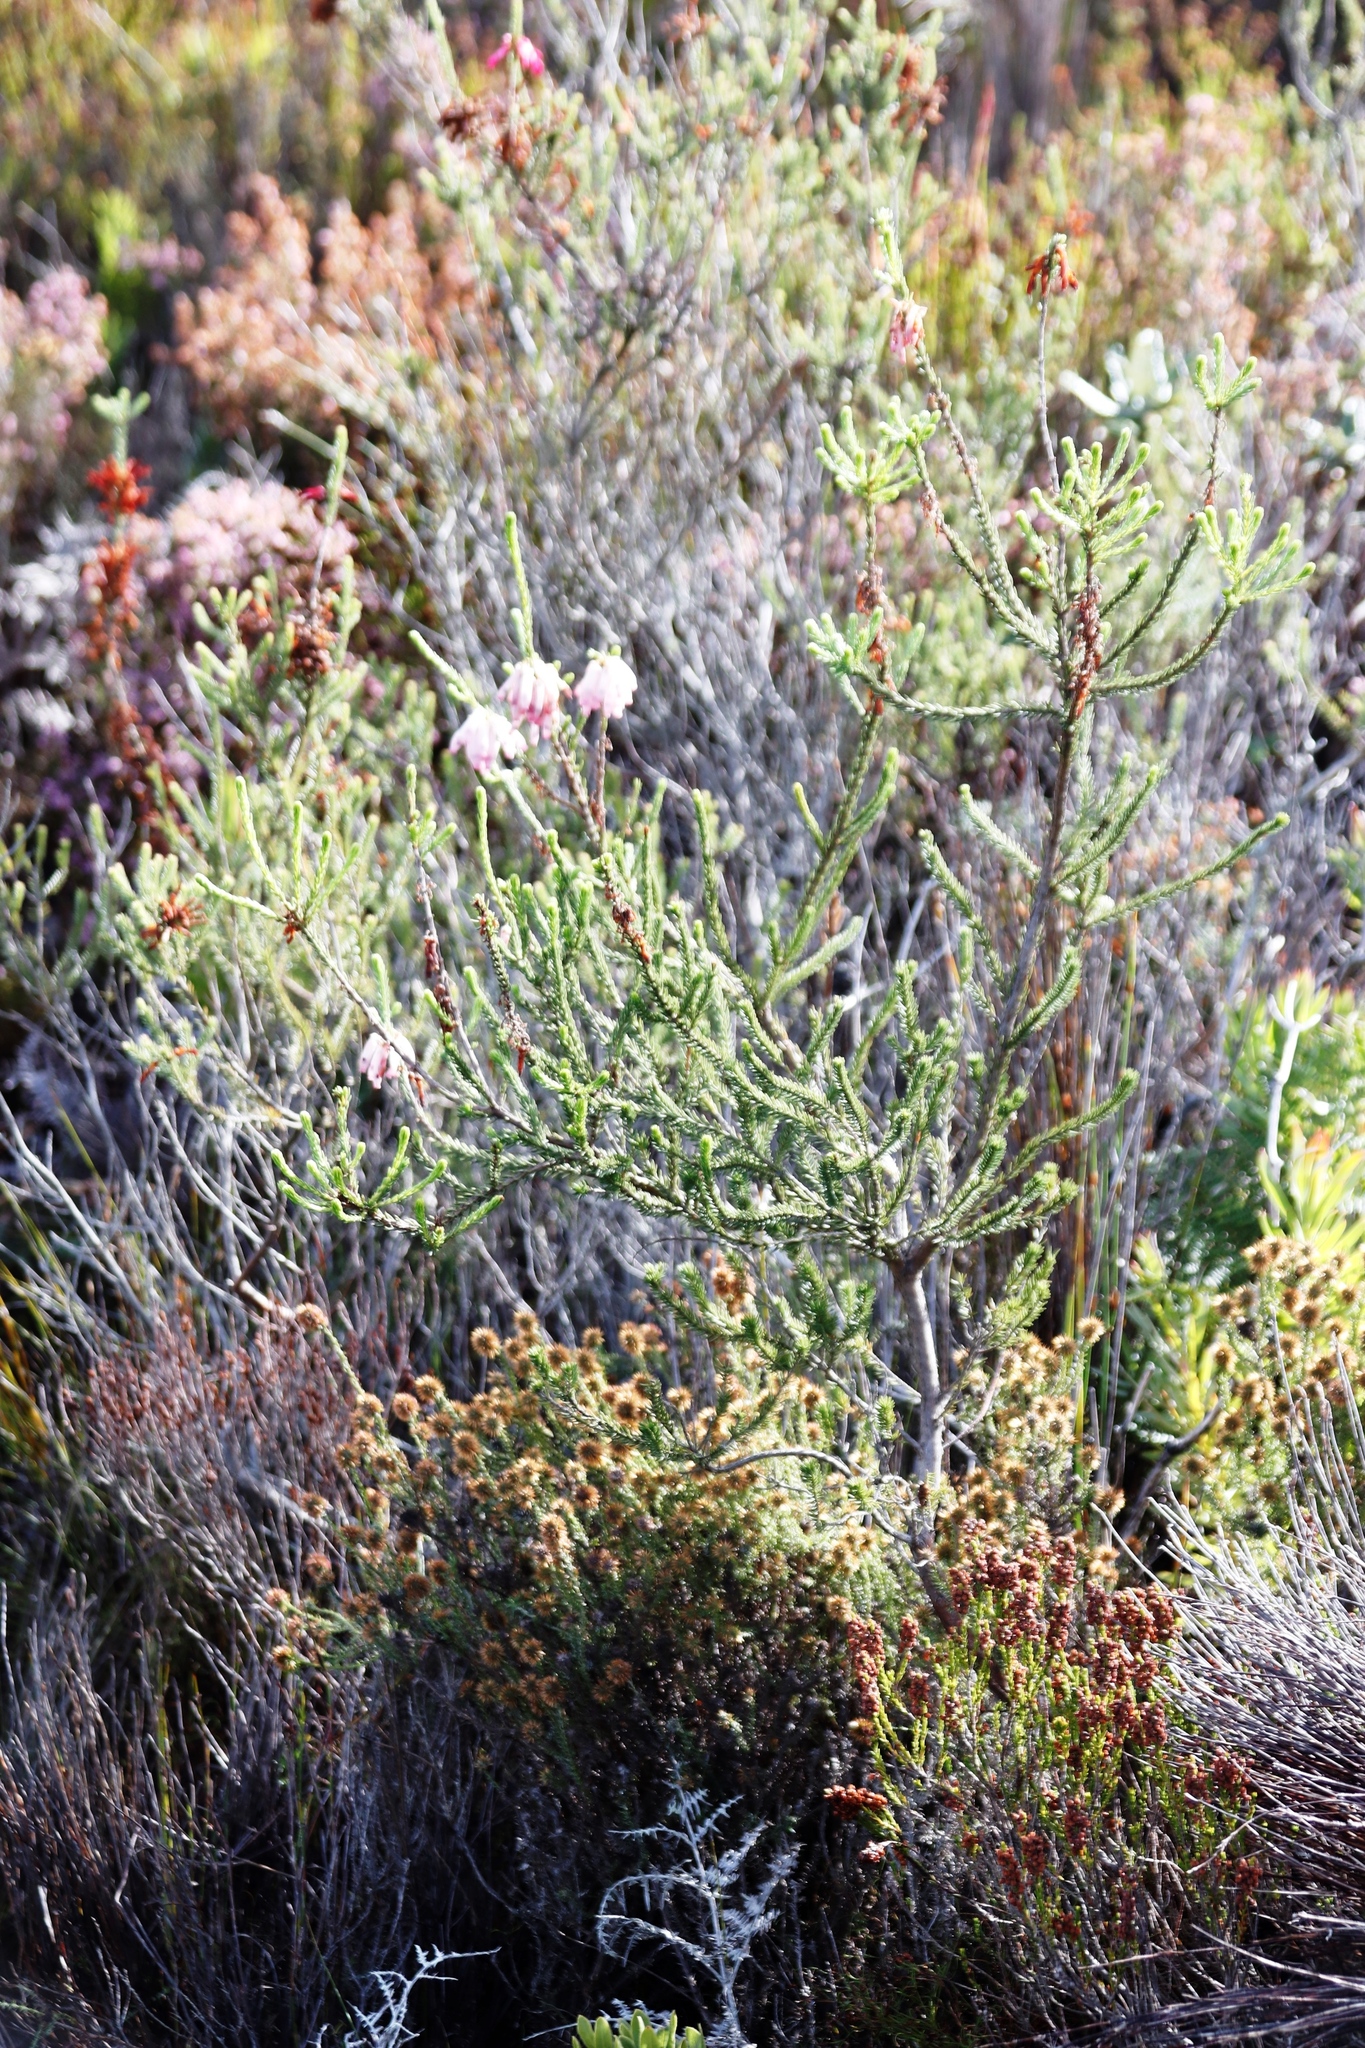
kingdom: Plantae
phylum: Tracheophyta
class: Magnoliopsida
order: Ericales
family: Ericaceae
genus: Erica
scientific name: Erica mammosa
